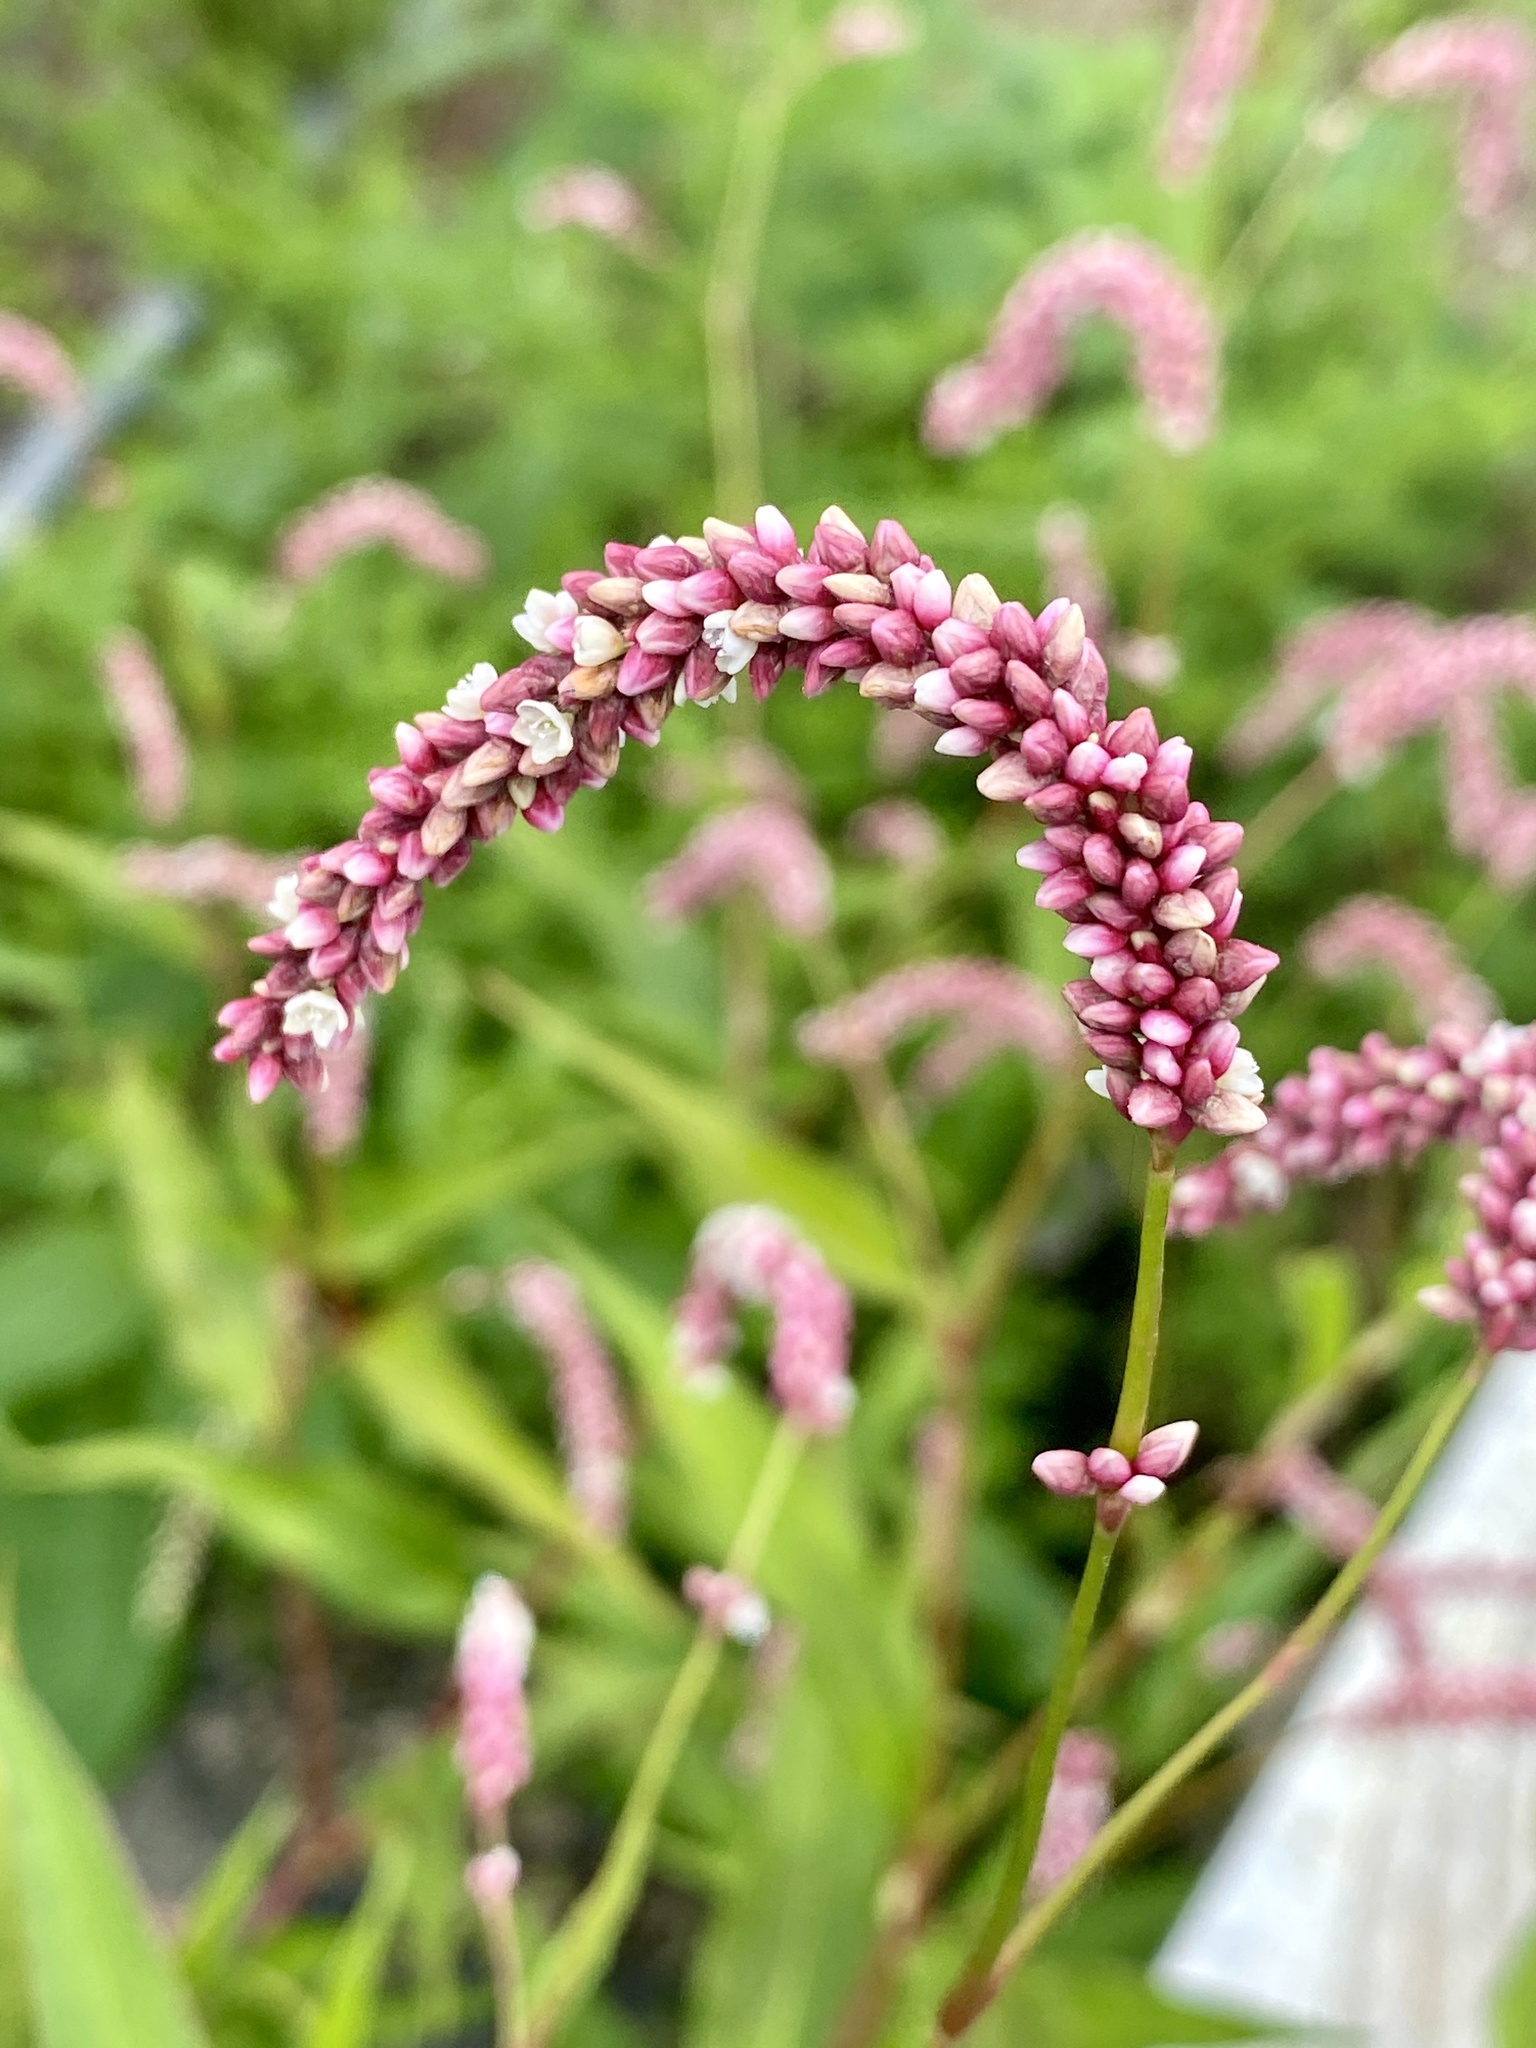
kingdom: Plantae
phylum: Tracheophyta
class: Magnoliopsida
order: Caryophyllales
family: Polygonaceae
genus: Persicaria
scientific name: Persicaria extremiorientalis
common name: Far-eastern smartweed
